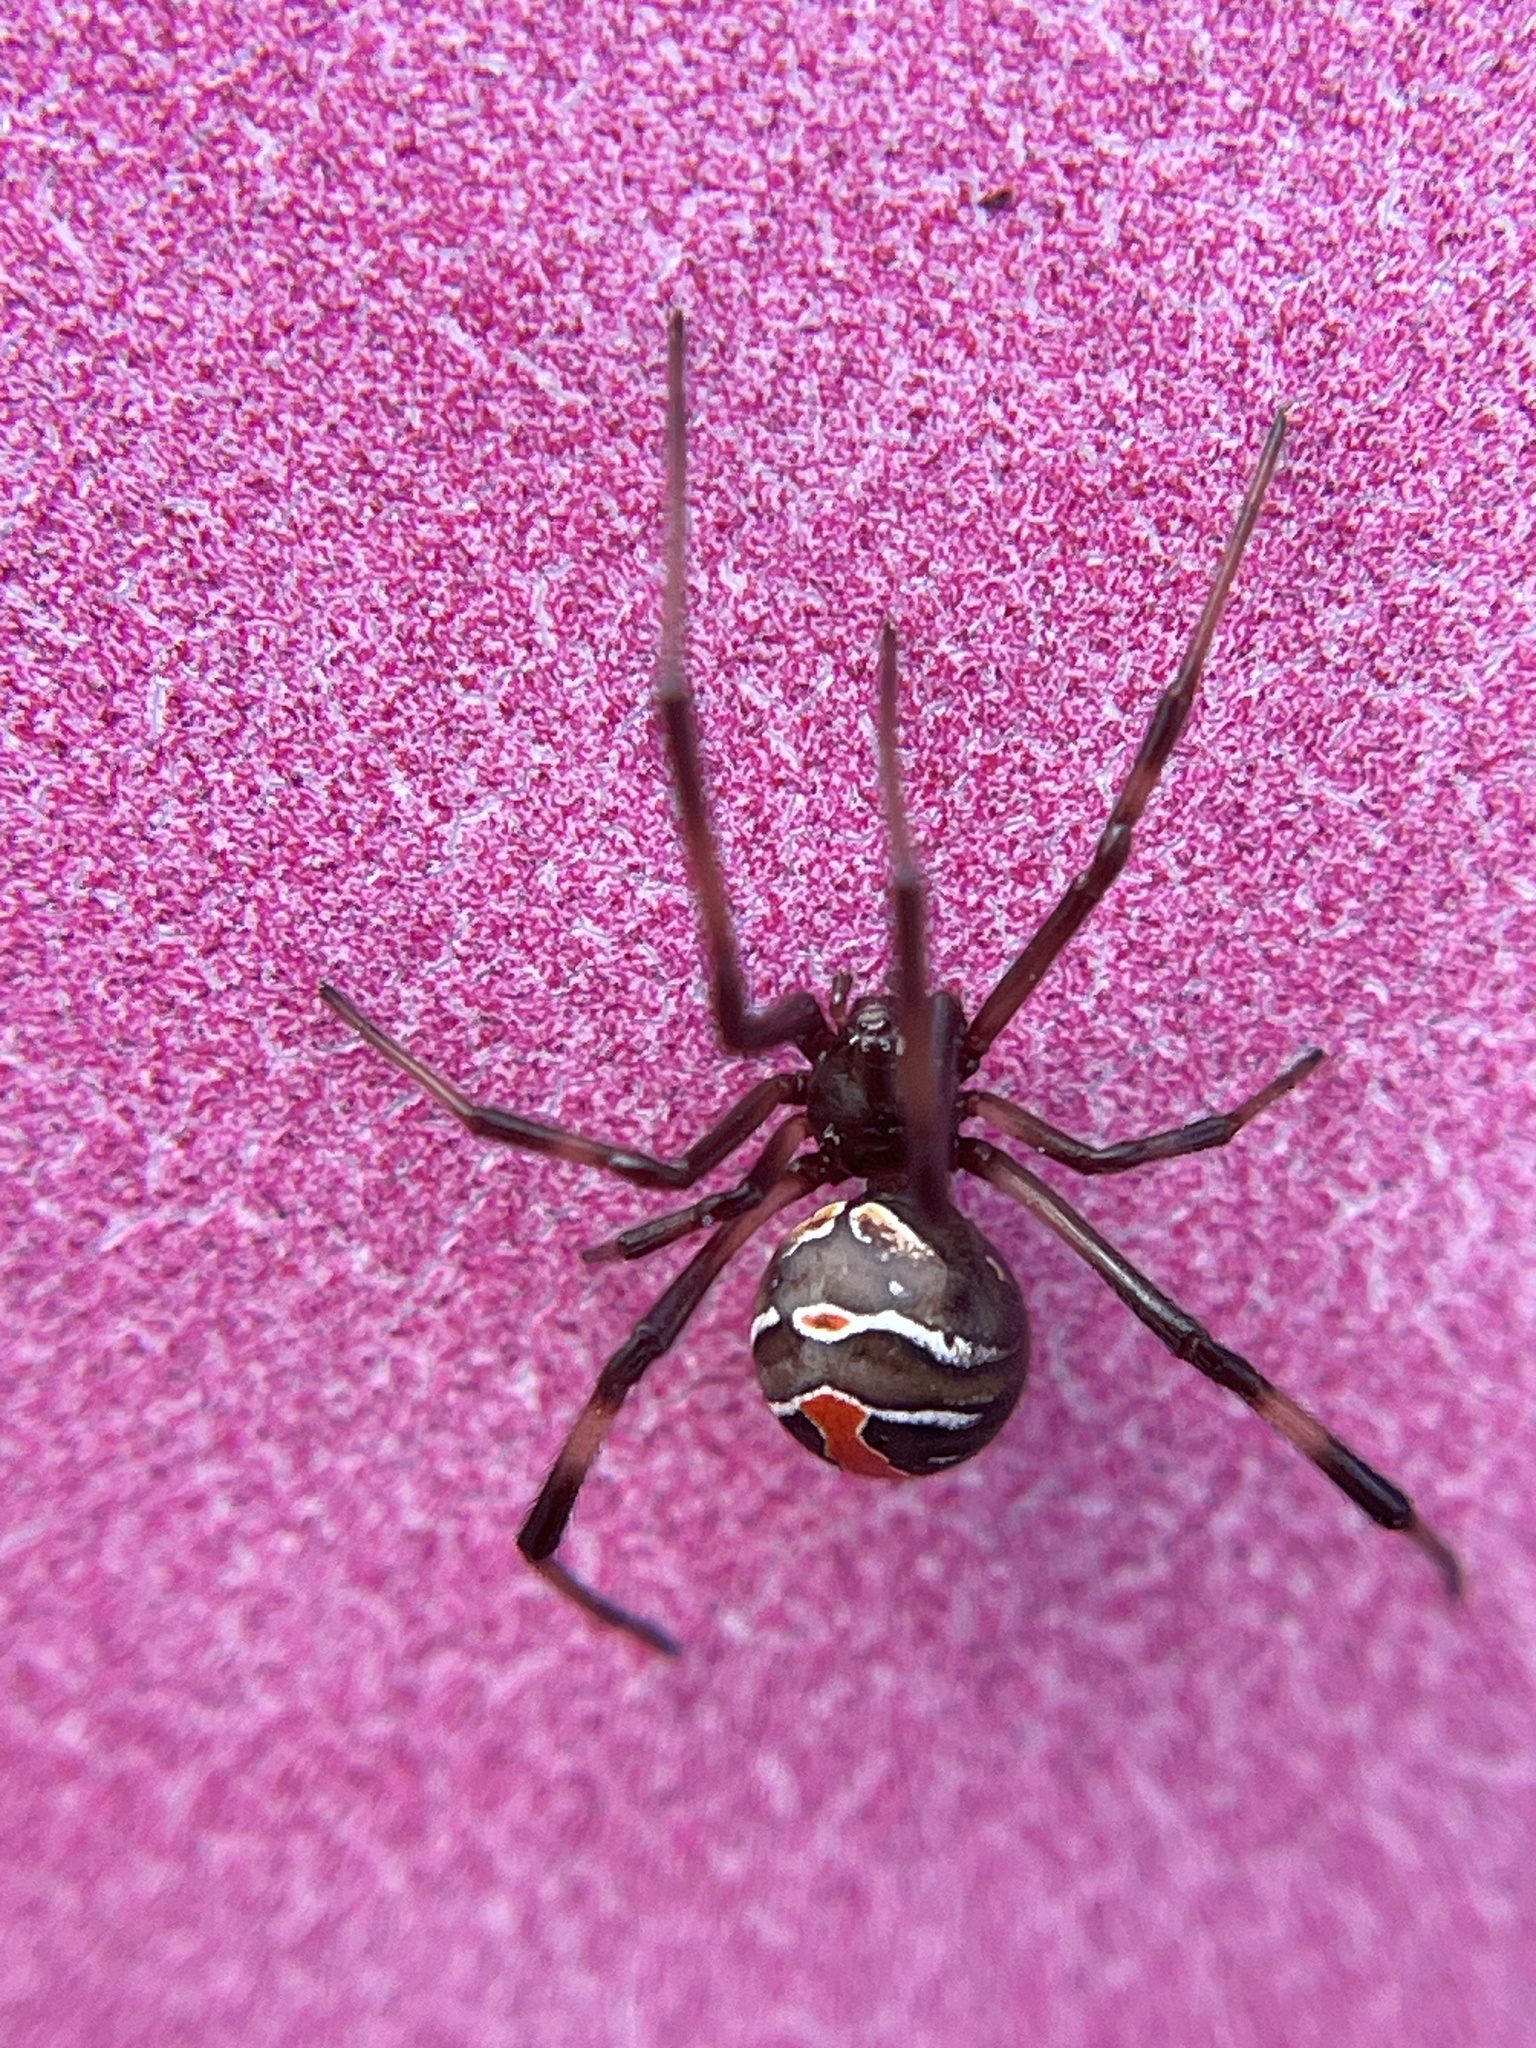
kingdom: Animalia
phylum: Arthropoda
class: Arachnida
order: Araneae
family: Theridiidae
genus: Latrodectus
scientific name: Latrodectus hasselti
